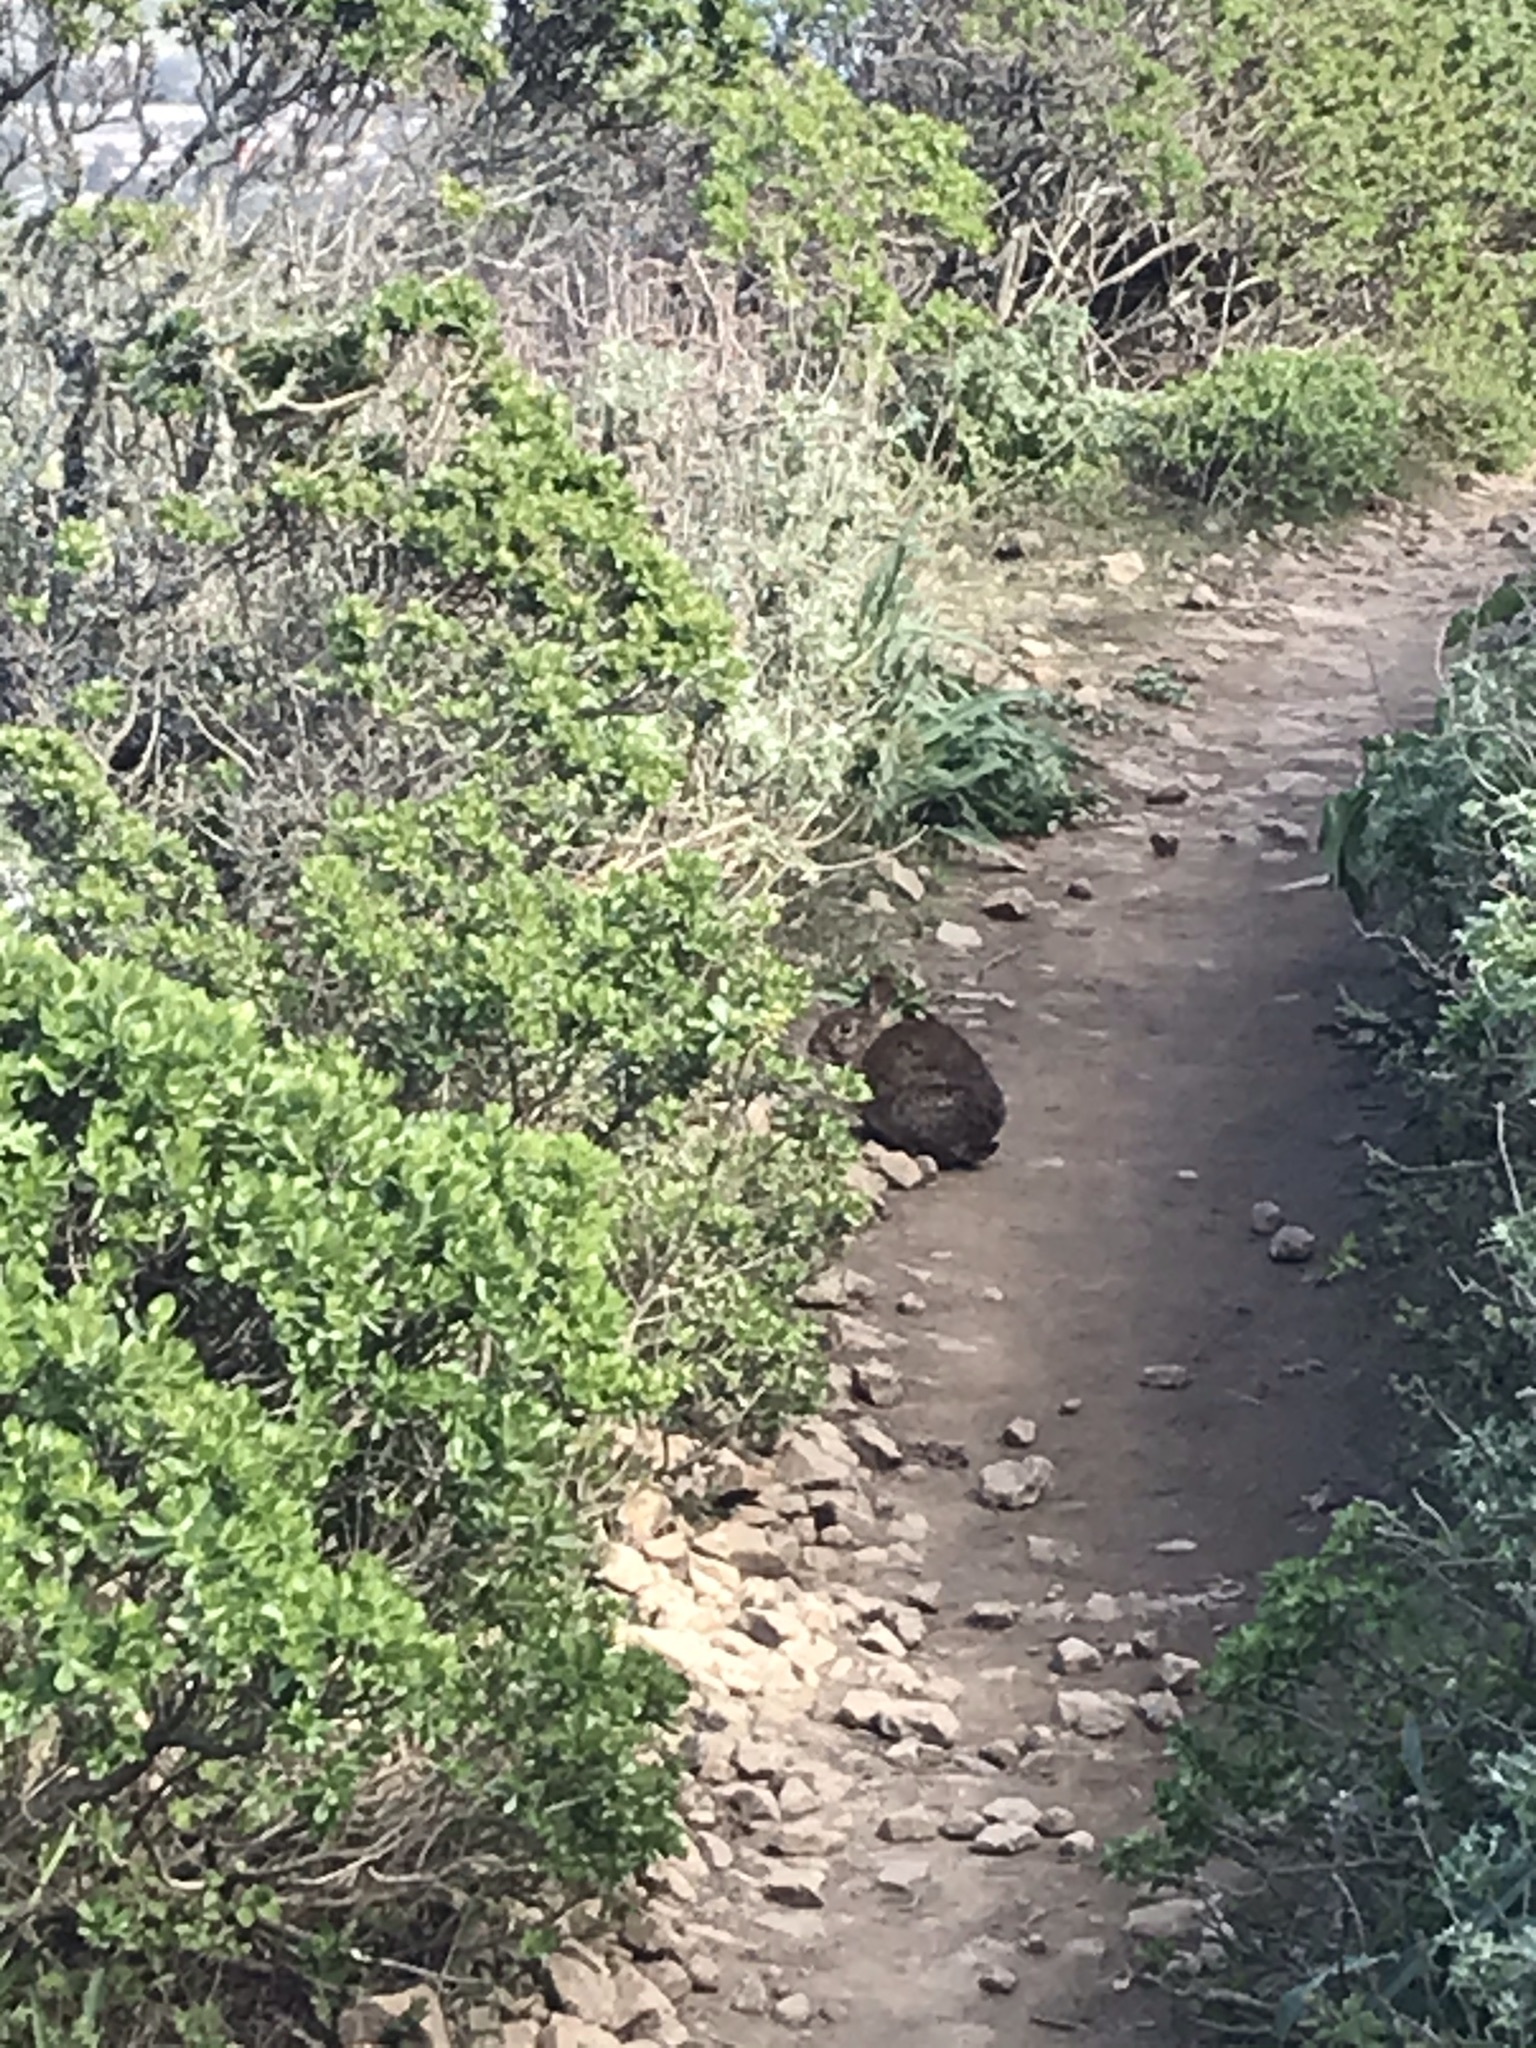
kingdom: Animalia
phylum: Chordata
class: Mammalia
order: Lagomorpha
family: Leporidae
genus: Sylvilagus
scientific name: Sylvilagus bachmani
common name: Brush rabbit
